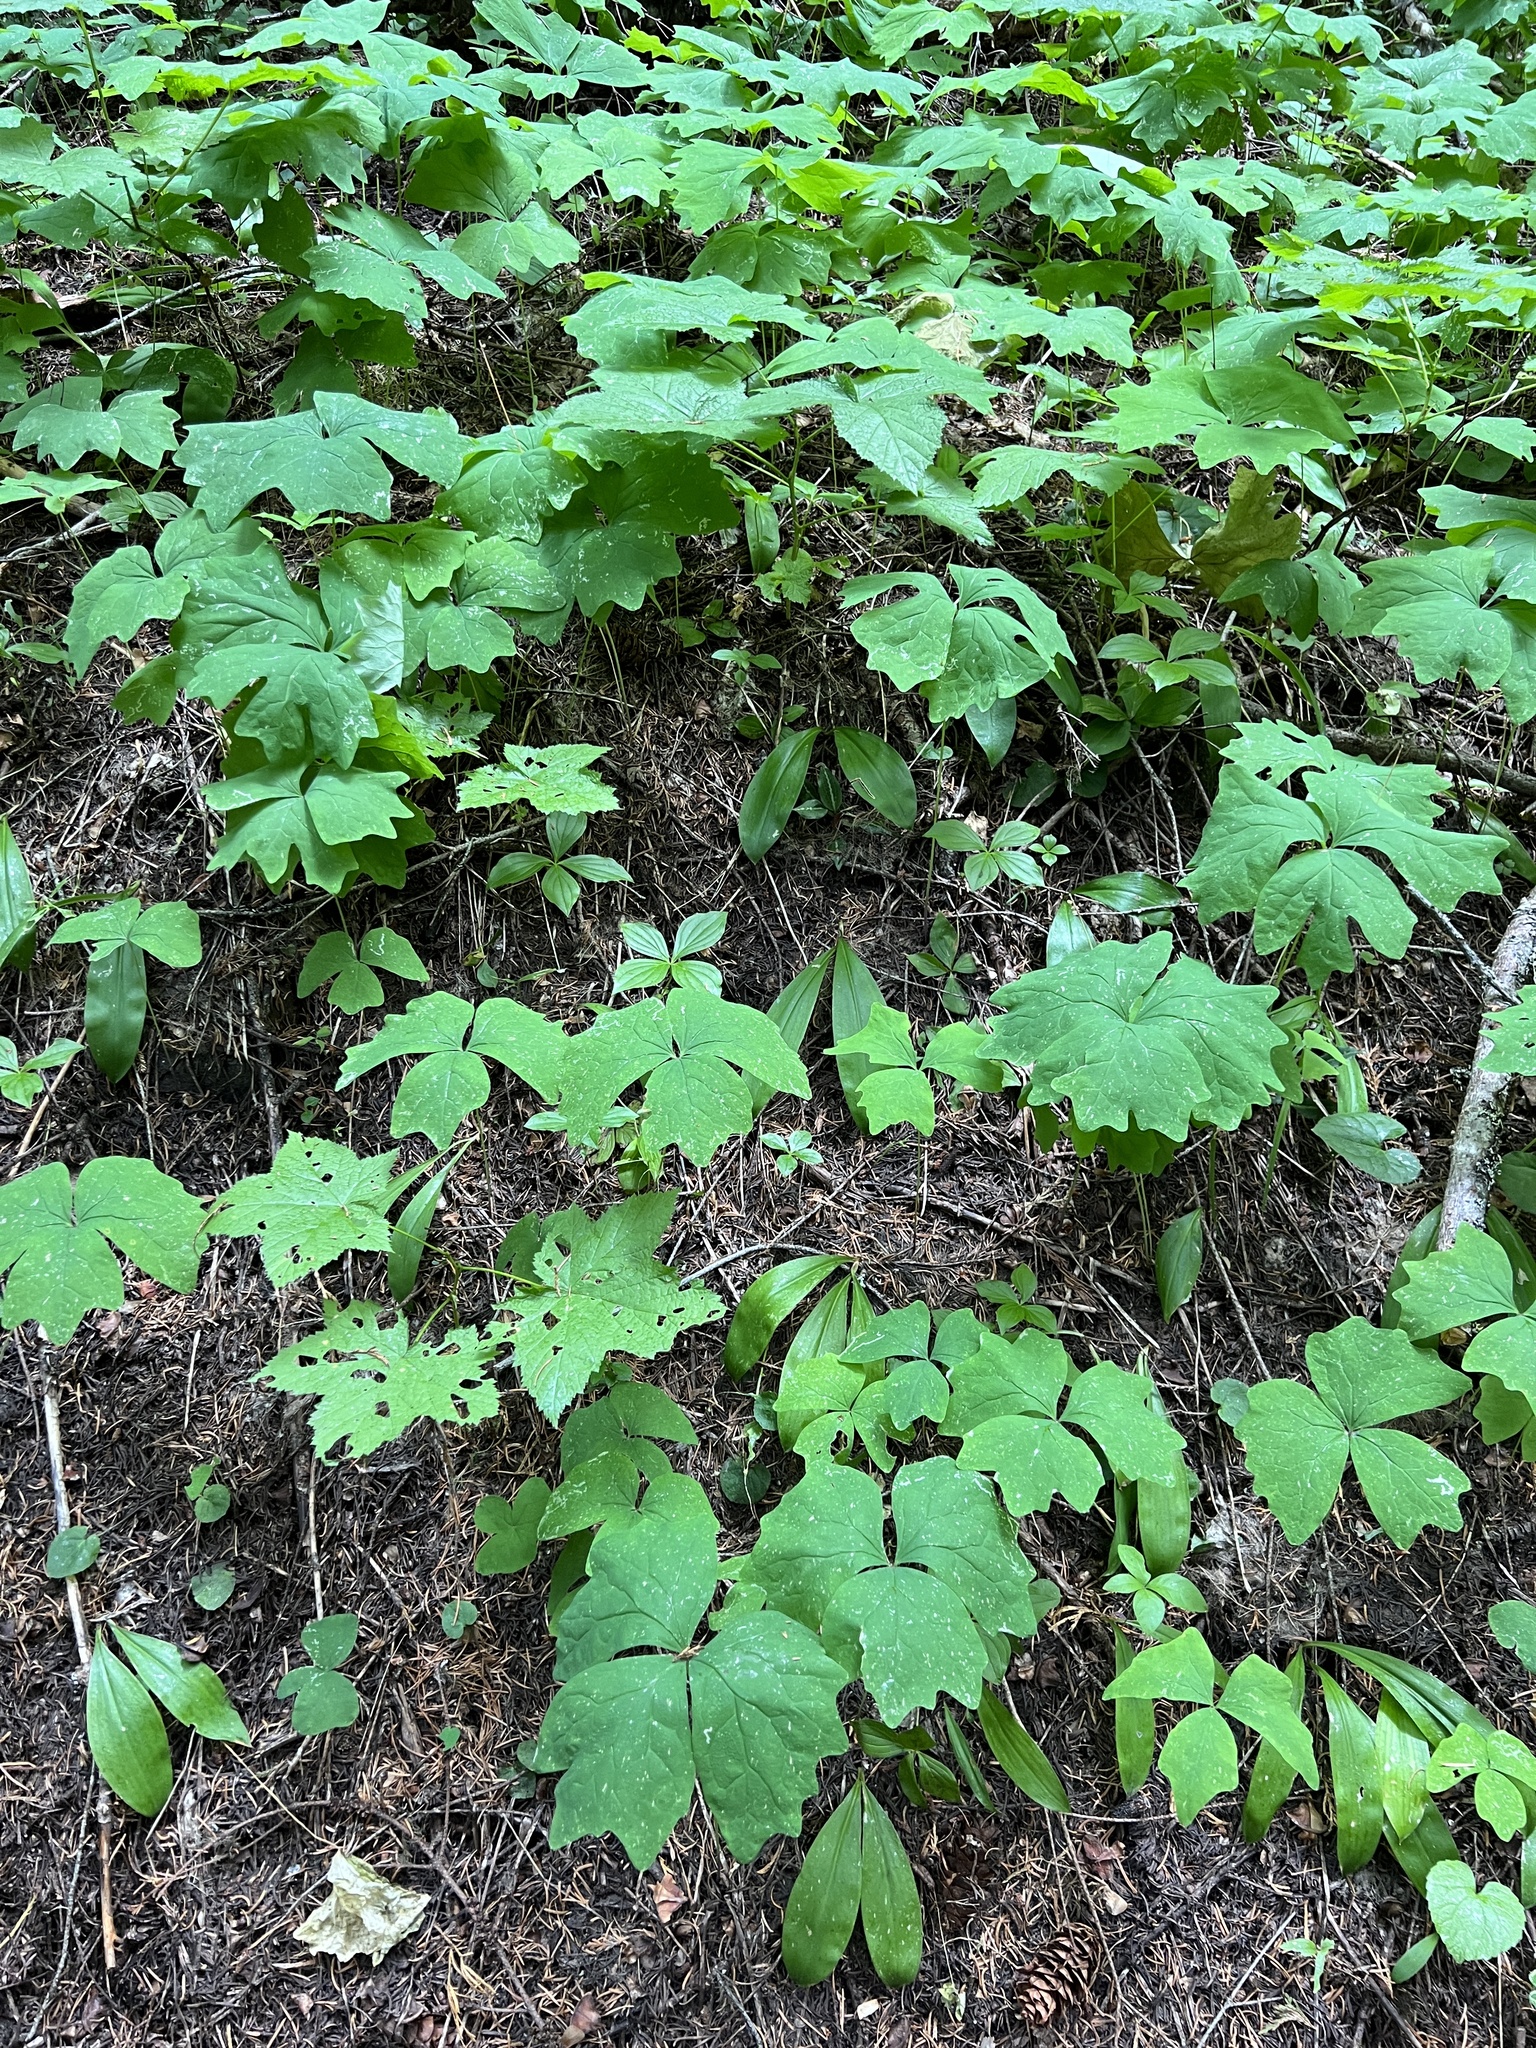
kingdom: Plantae
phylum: Tracheophyta
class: Magnoliopsida
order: Ranunculales
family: Berberidaceae
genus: Achlys
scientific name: Achlys triphylla
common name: Vanilla-leaf
